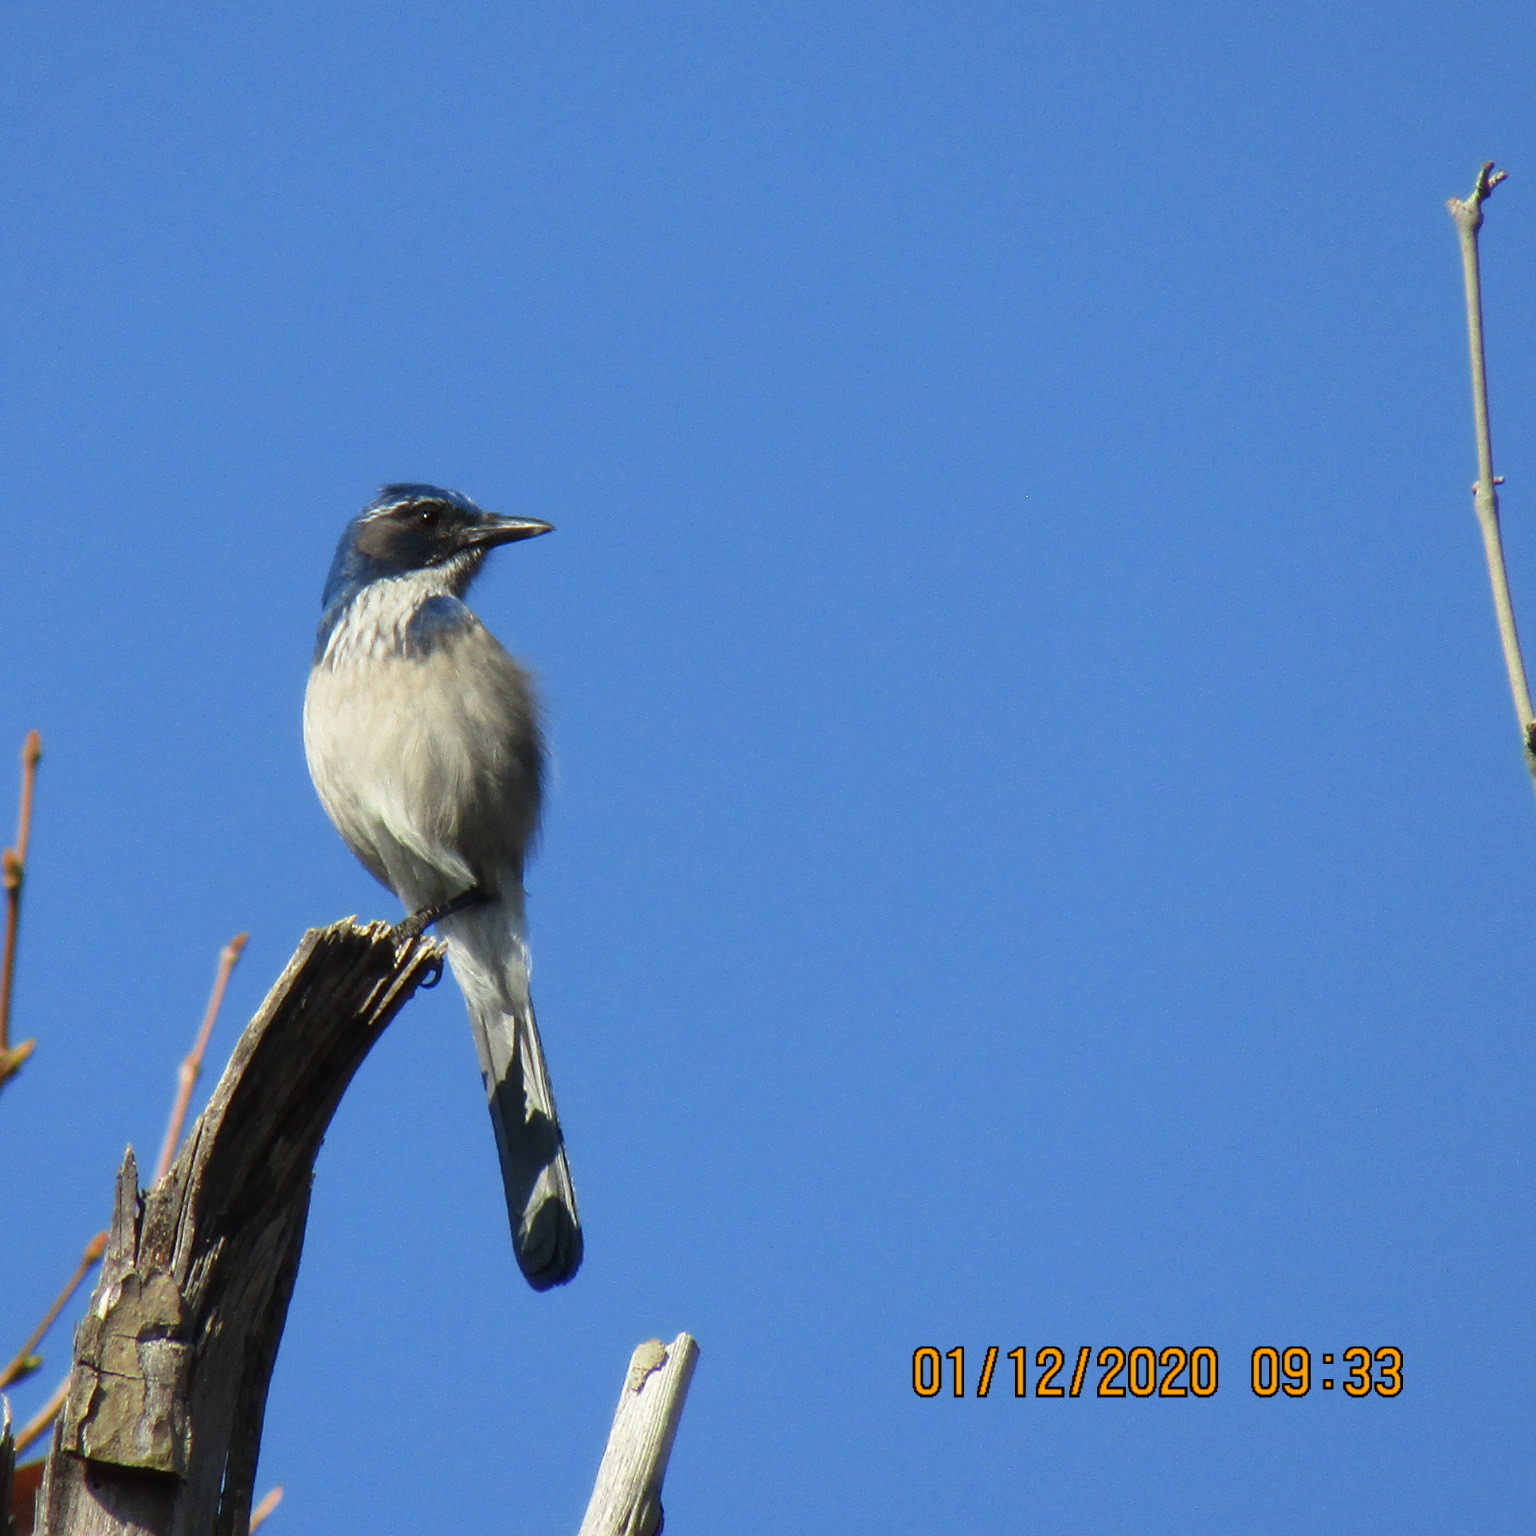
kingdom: Animalia
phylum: Chordata
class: Aves
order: Passeriformes
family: Corvidae
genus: Aphelocoma
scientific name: Aphelocoma californica
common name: California scrub-jay
